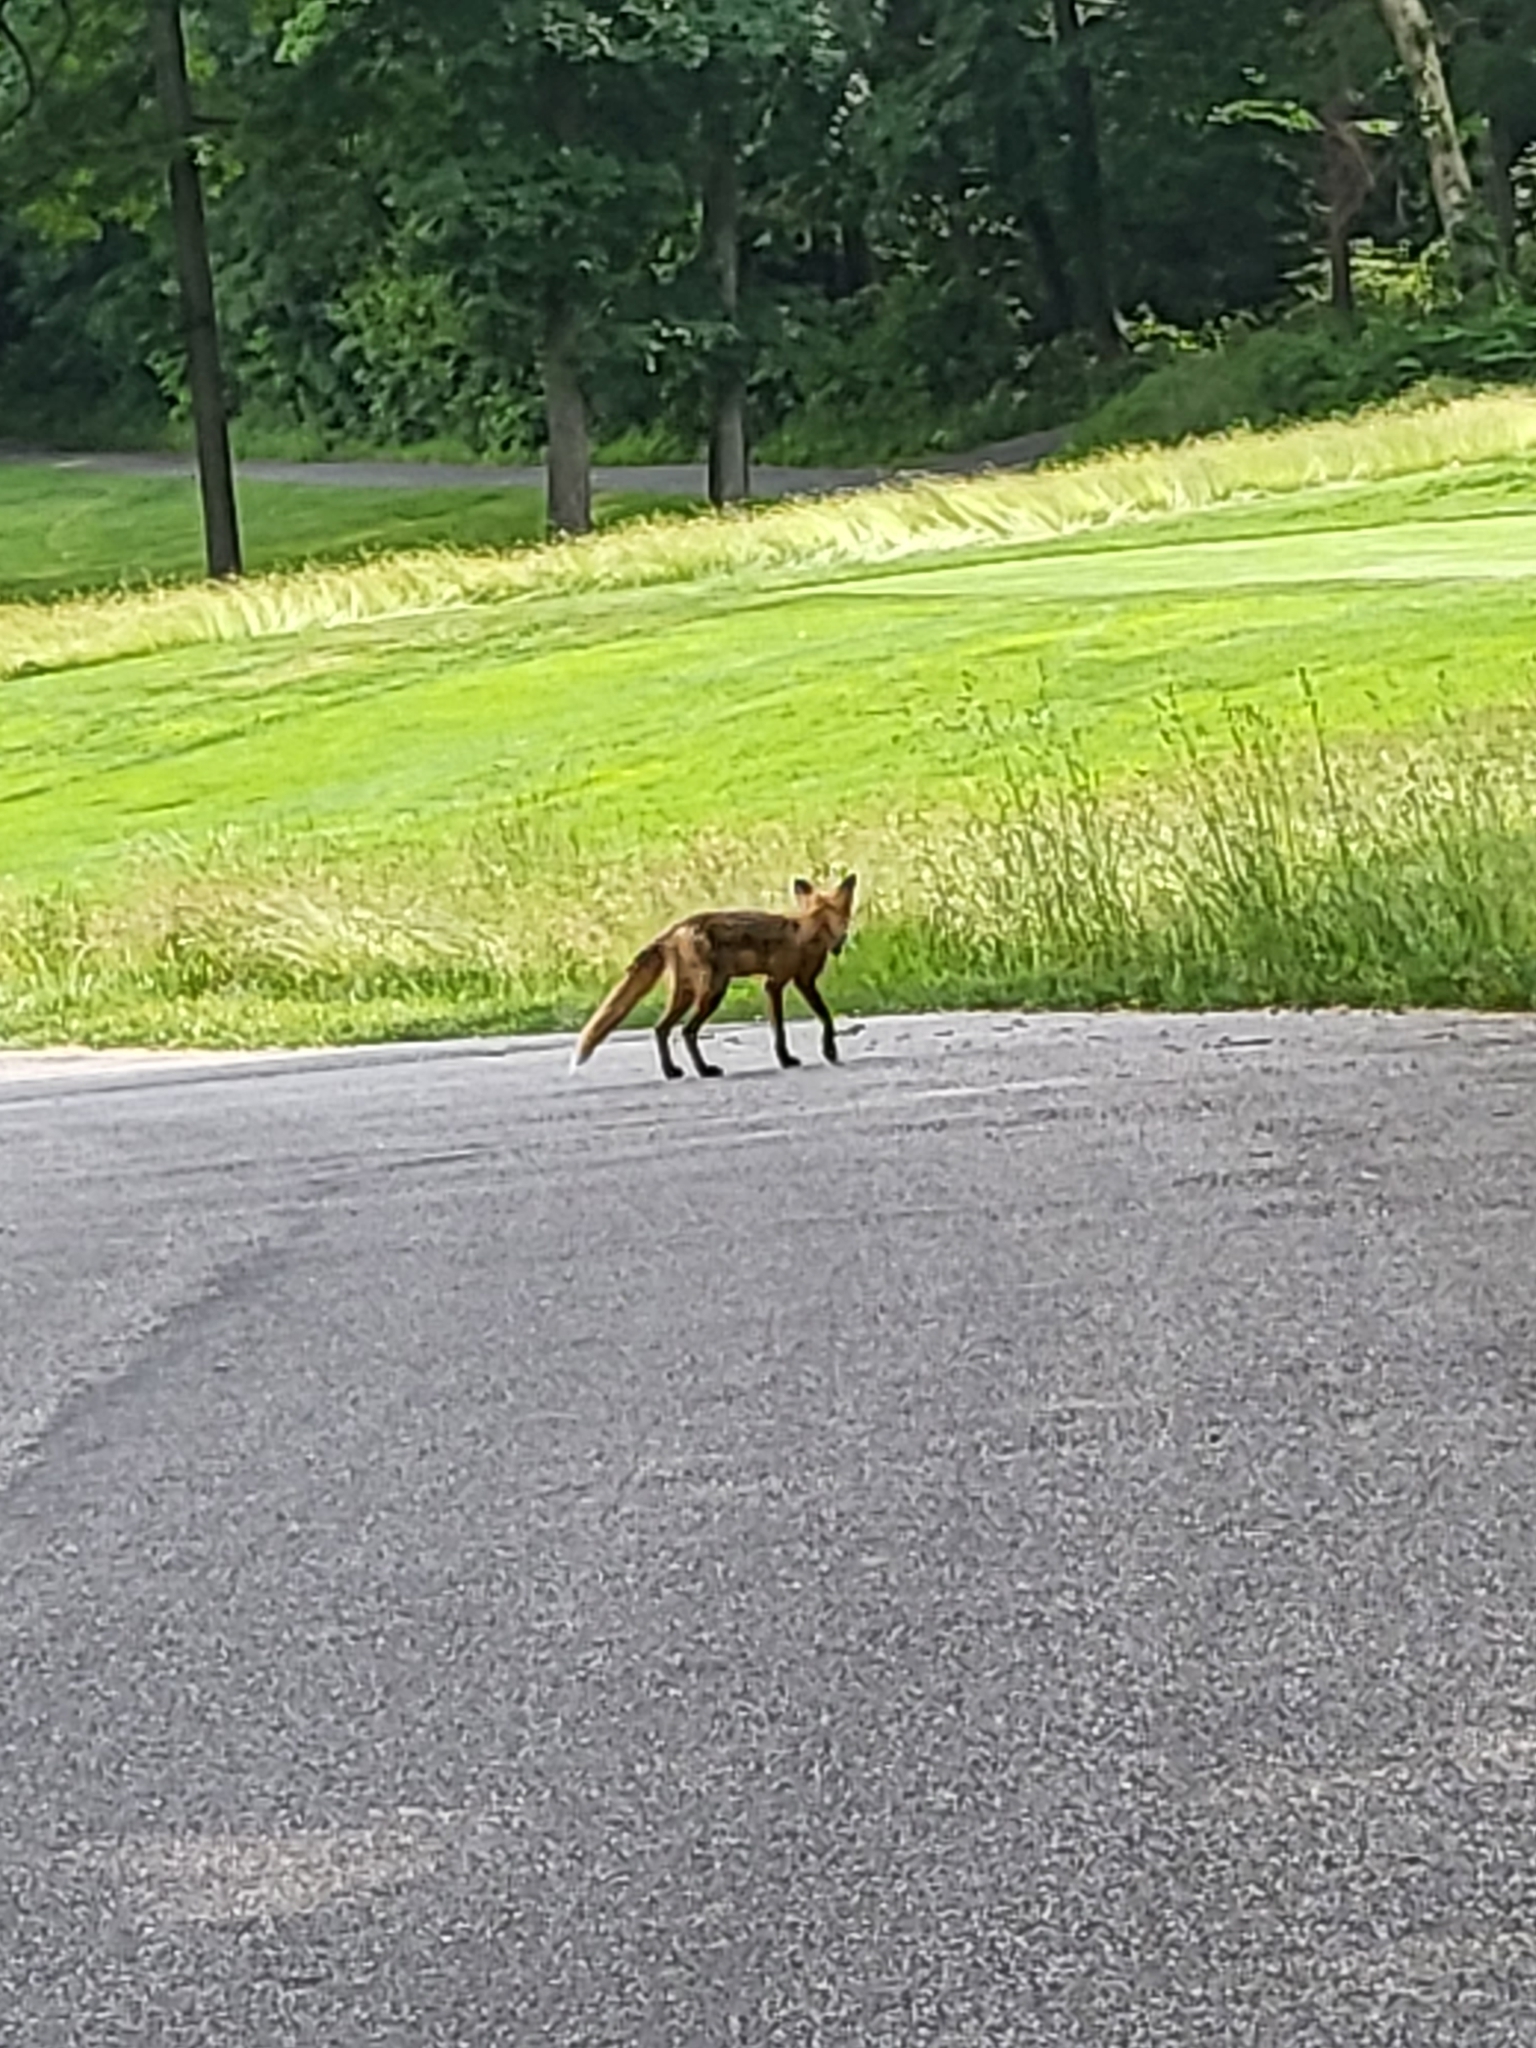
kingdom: Animalia
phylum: Chordata
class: Mammalia
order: Carnivora
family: Canidae
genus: Vulpes
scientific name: Vulpes vulpes
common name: Red fox
